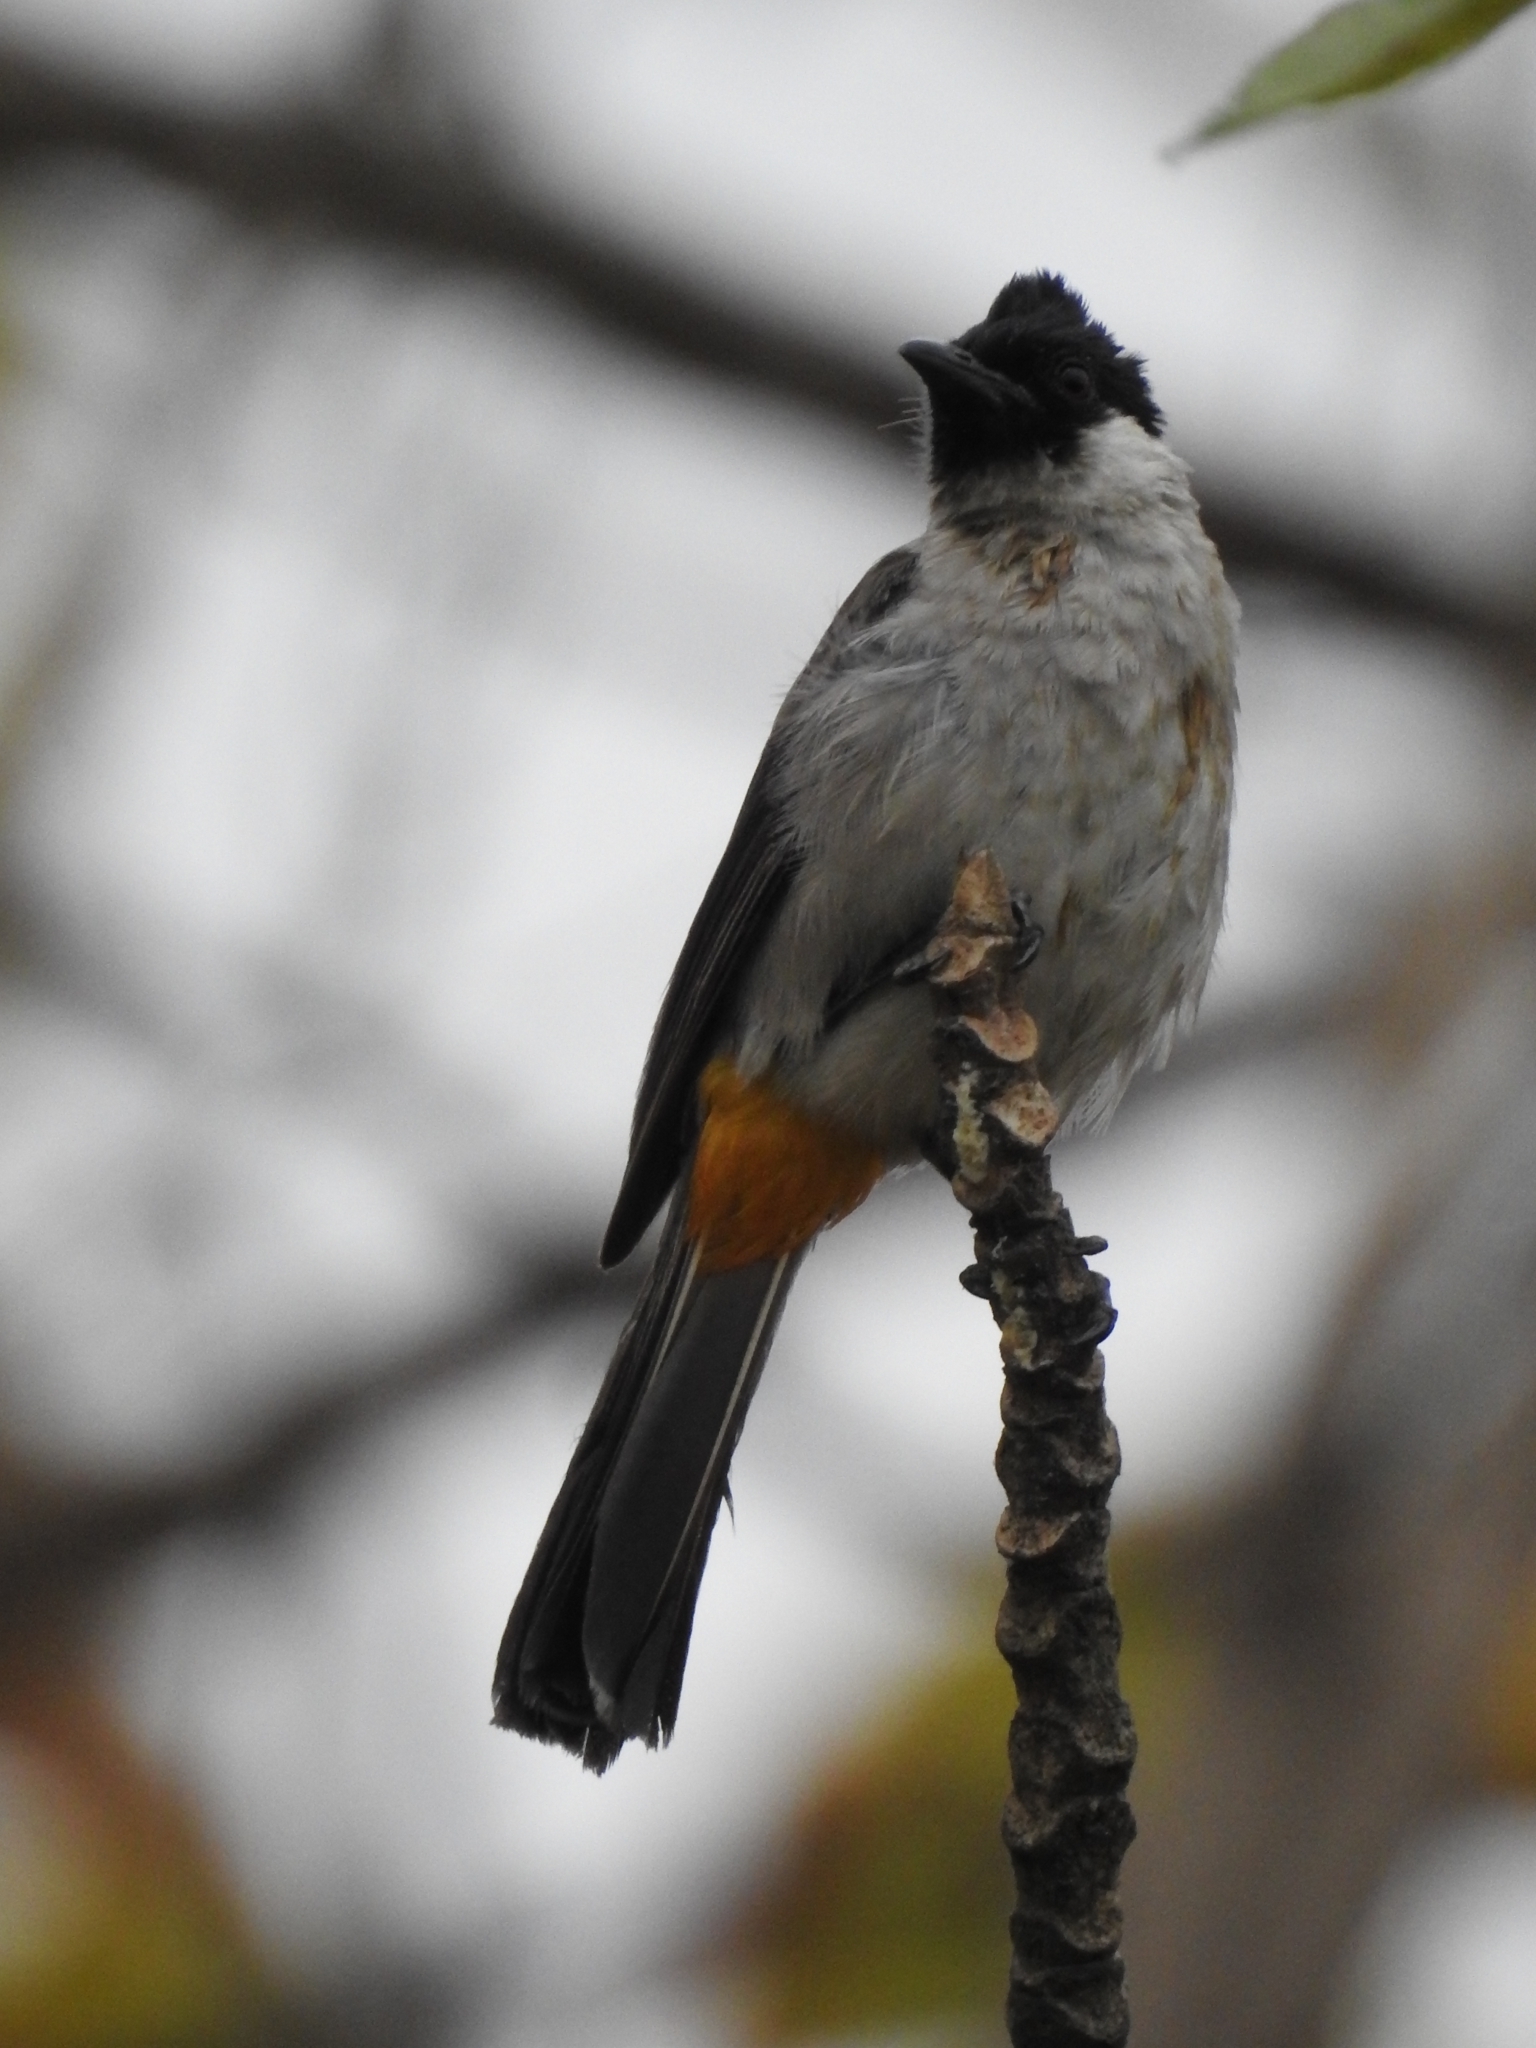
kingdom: Animalia
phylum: Chordata
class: Aves
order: Passeriformes
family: Pycnonotidae
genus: Pycnonotus
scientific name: Pycnonotus aurigaster
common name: Sooty-headed bulbul
